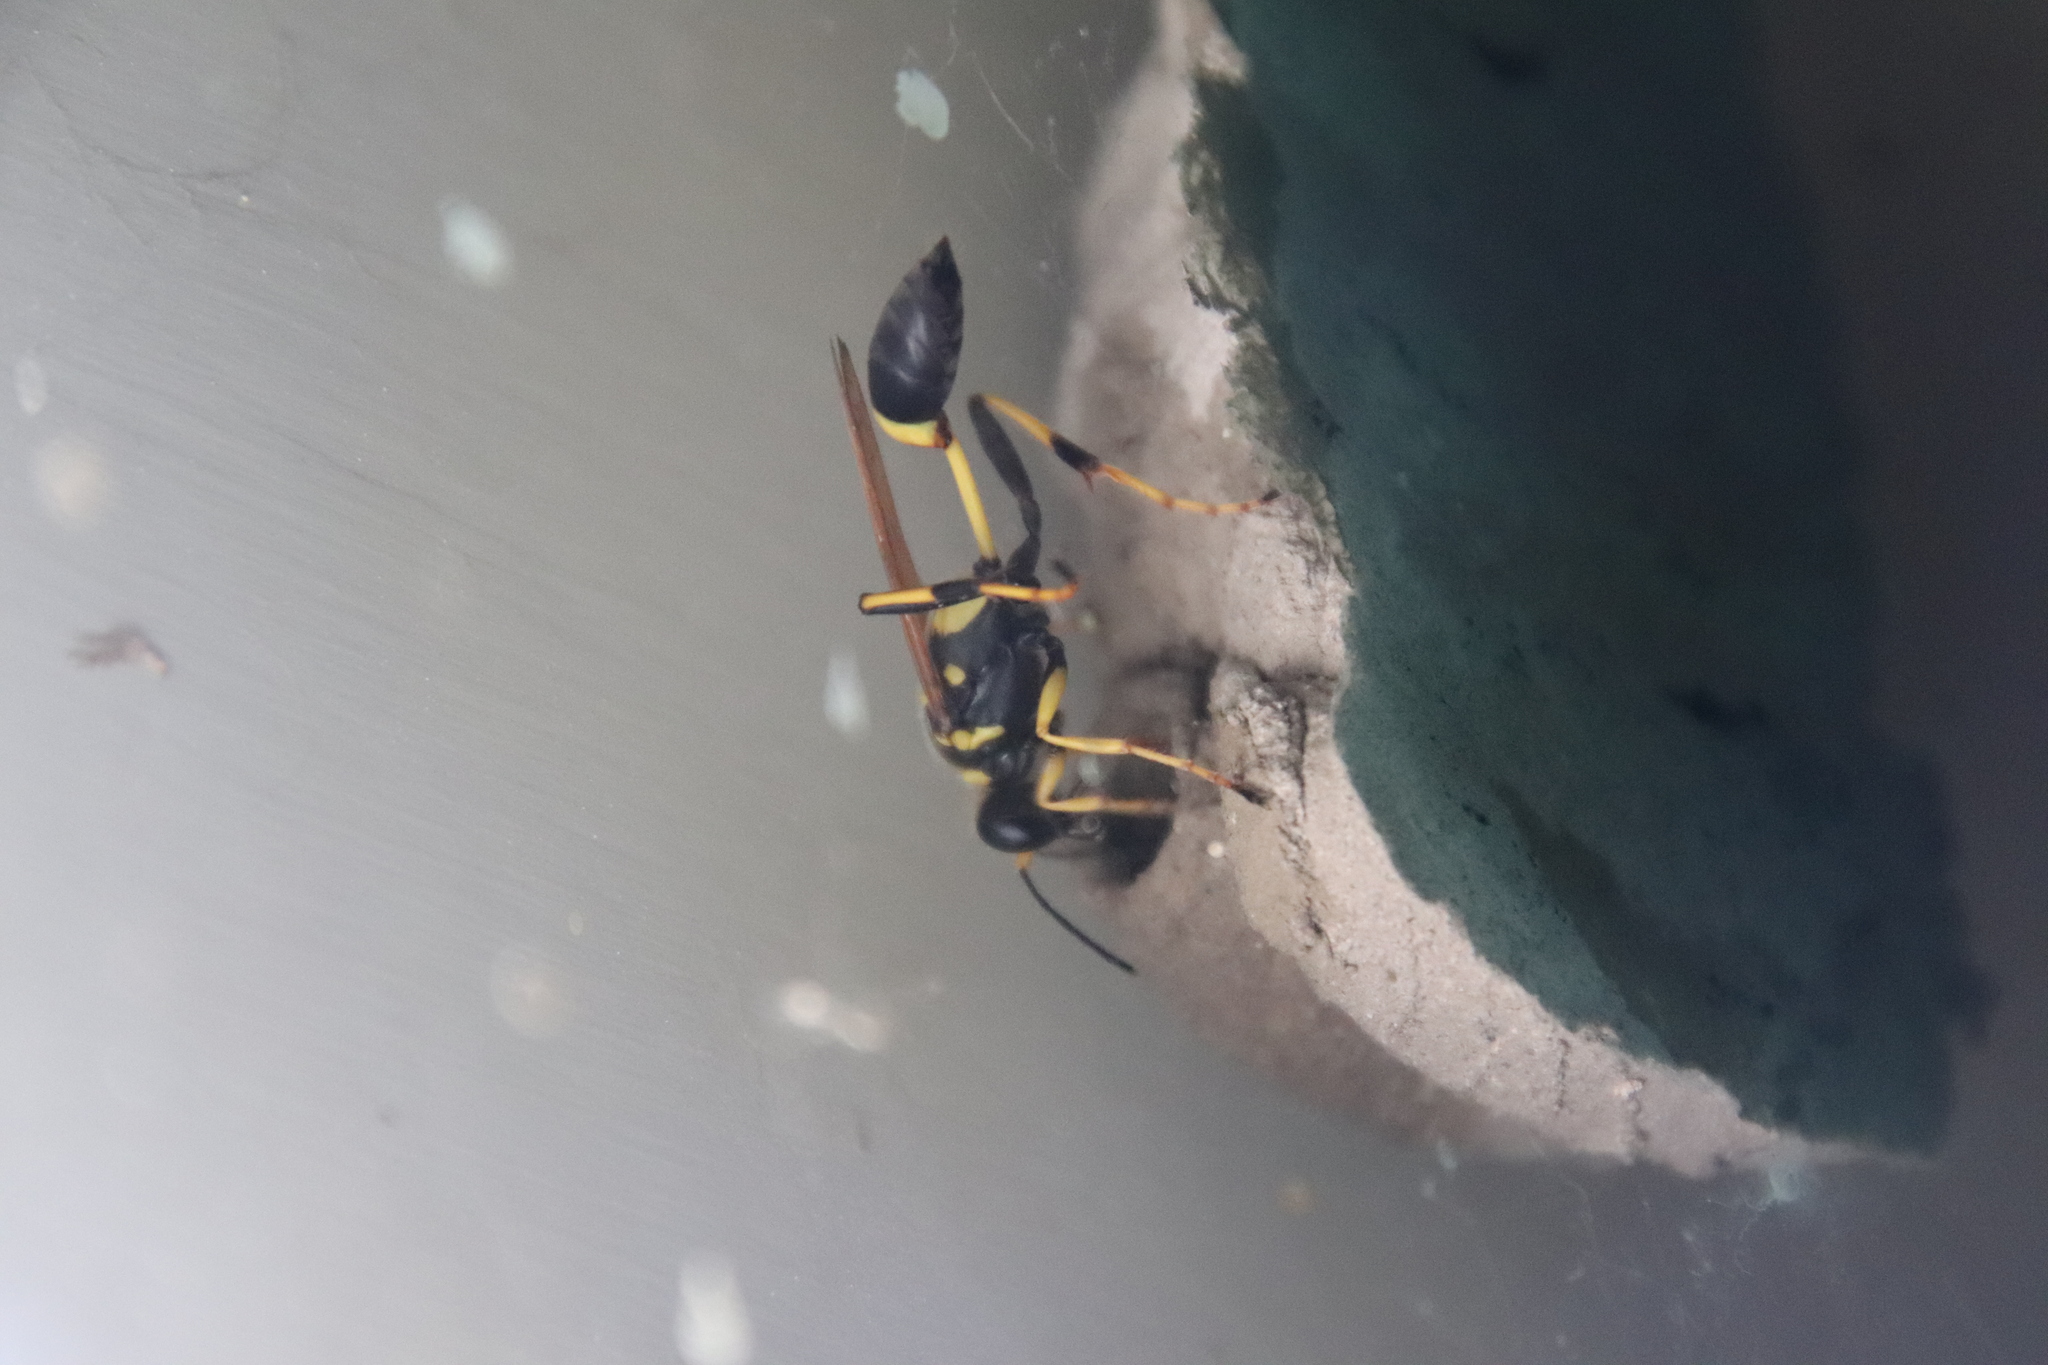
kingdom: Animalia
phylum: Arthropoda
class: Insecta
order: Hymenoptera
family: Sphecidae
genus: Sceliphron
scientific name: Sceliphron caementarium
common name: Mud dauber
